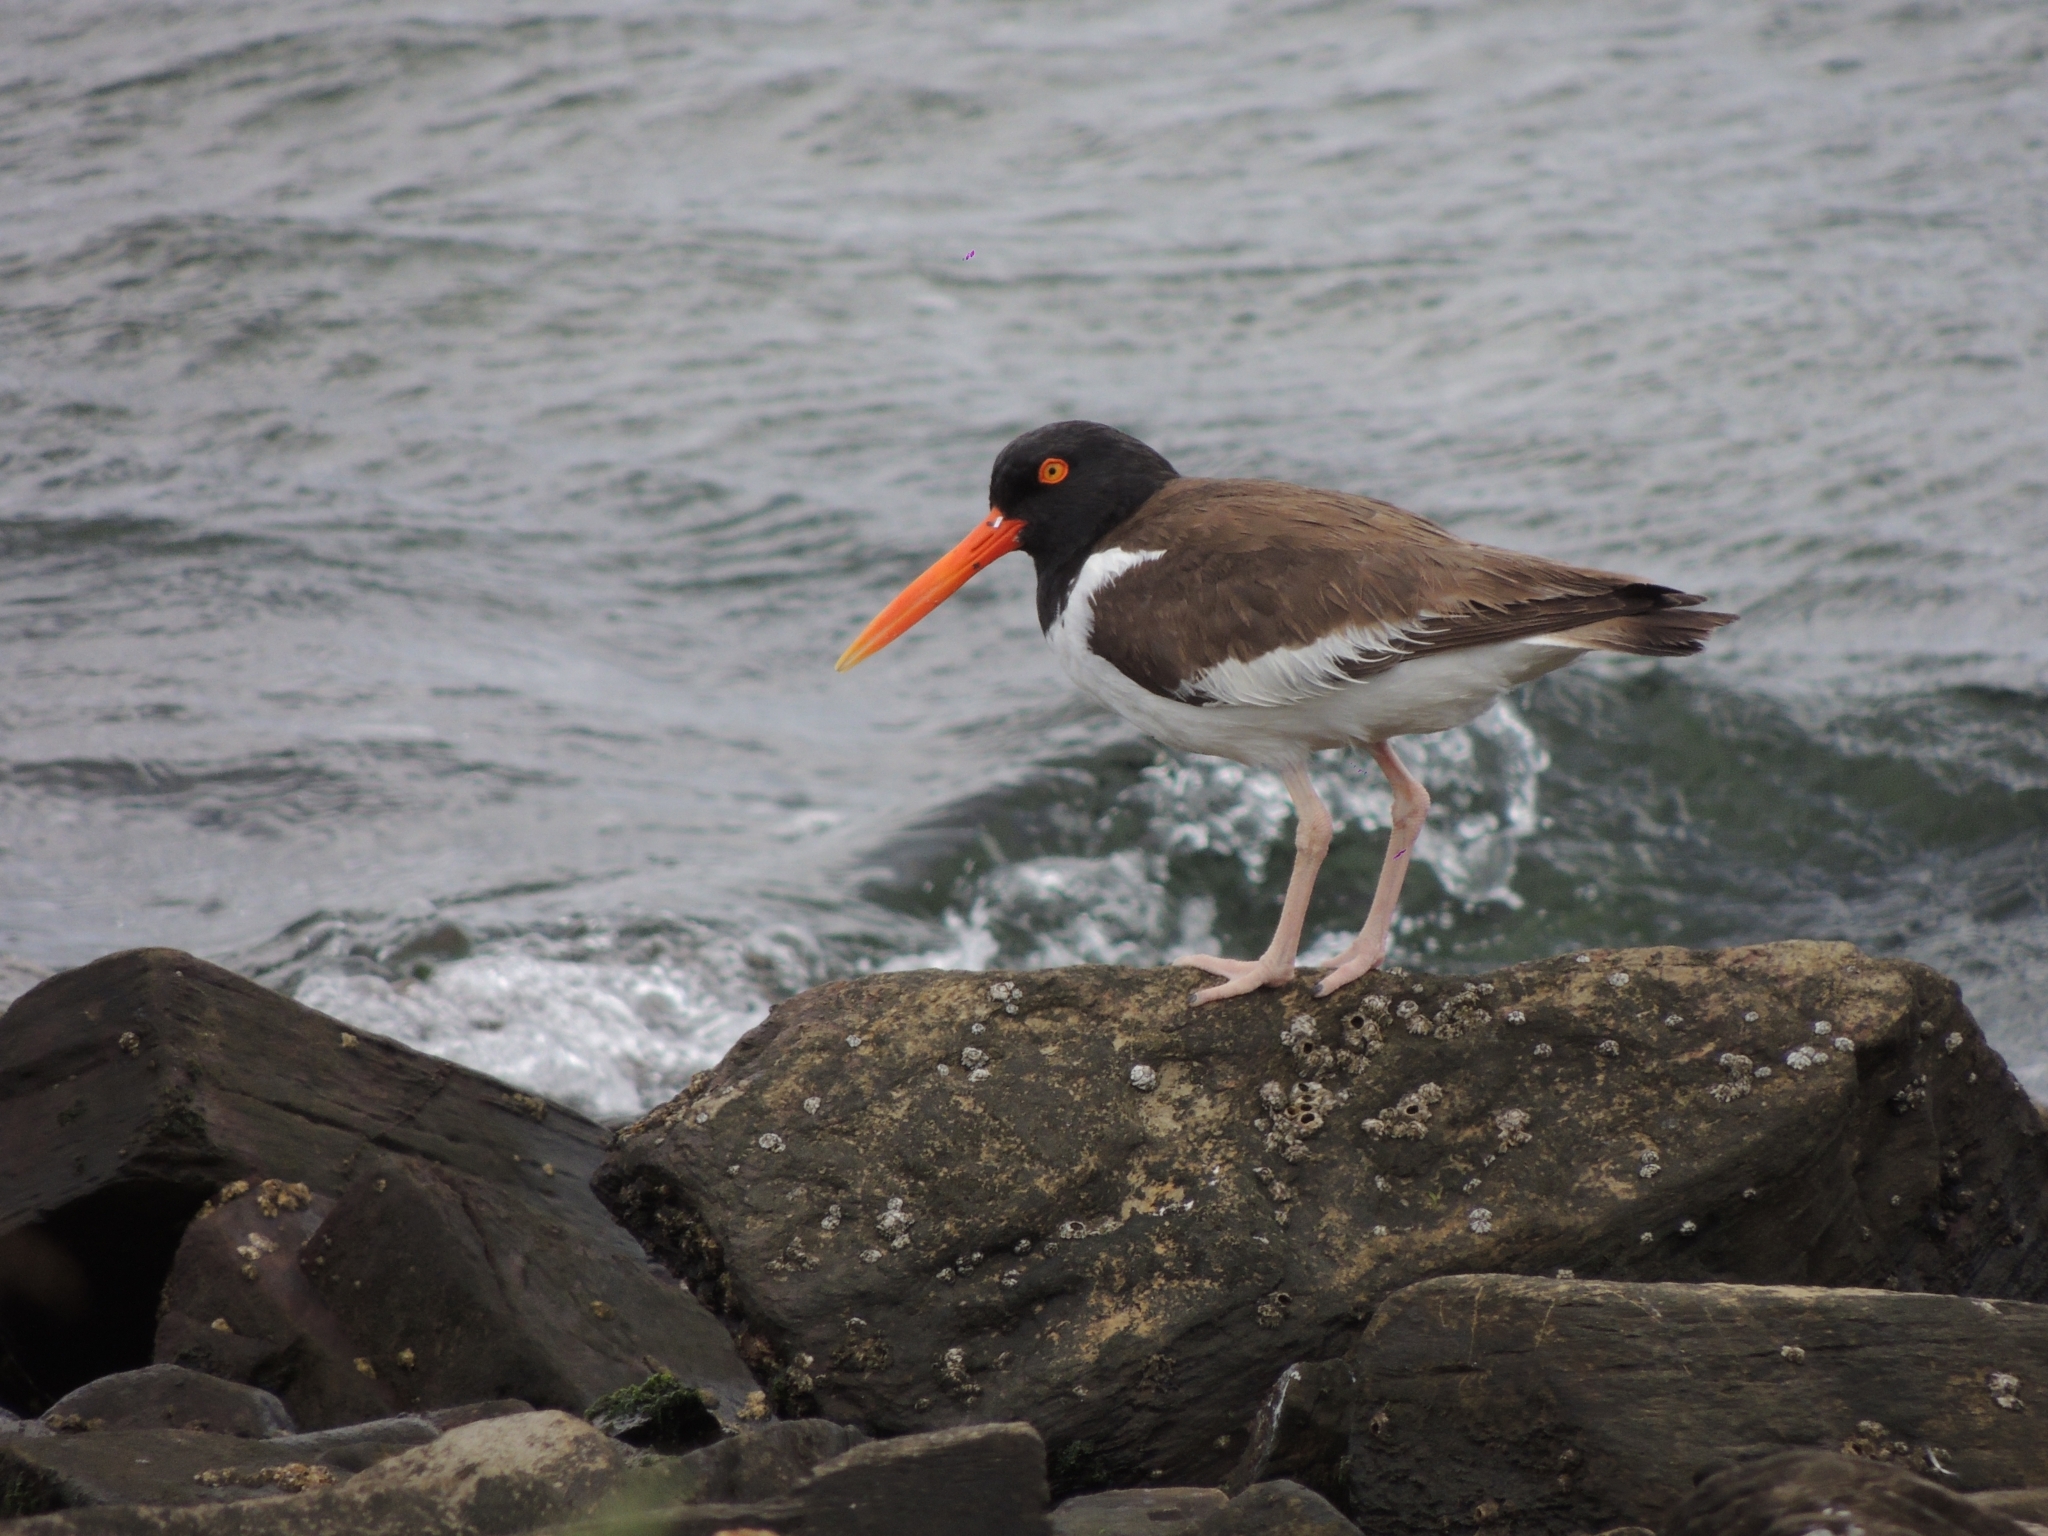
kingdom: Animalia
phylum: Chordata
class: Aves
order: Charadriiformes
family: Haematopodidae
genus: Haematopus
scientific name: Haematopus palliatus
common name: American oystercatcher
